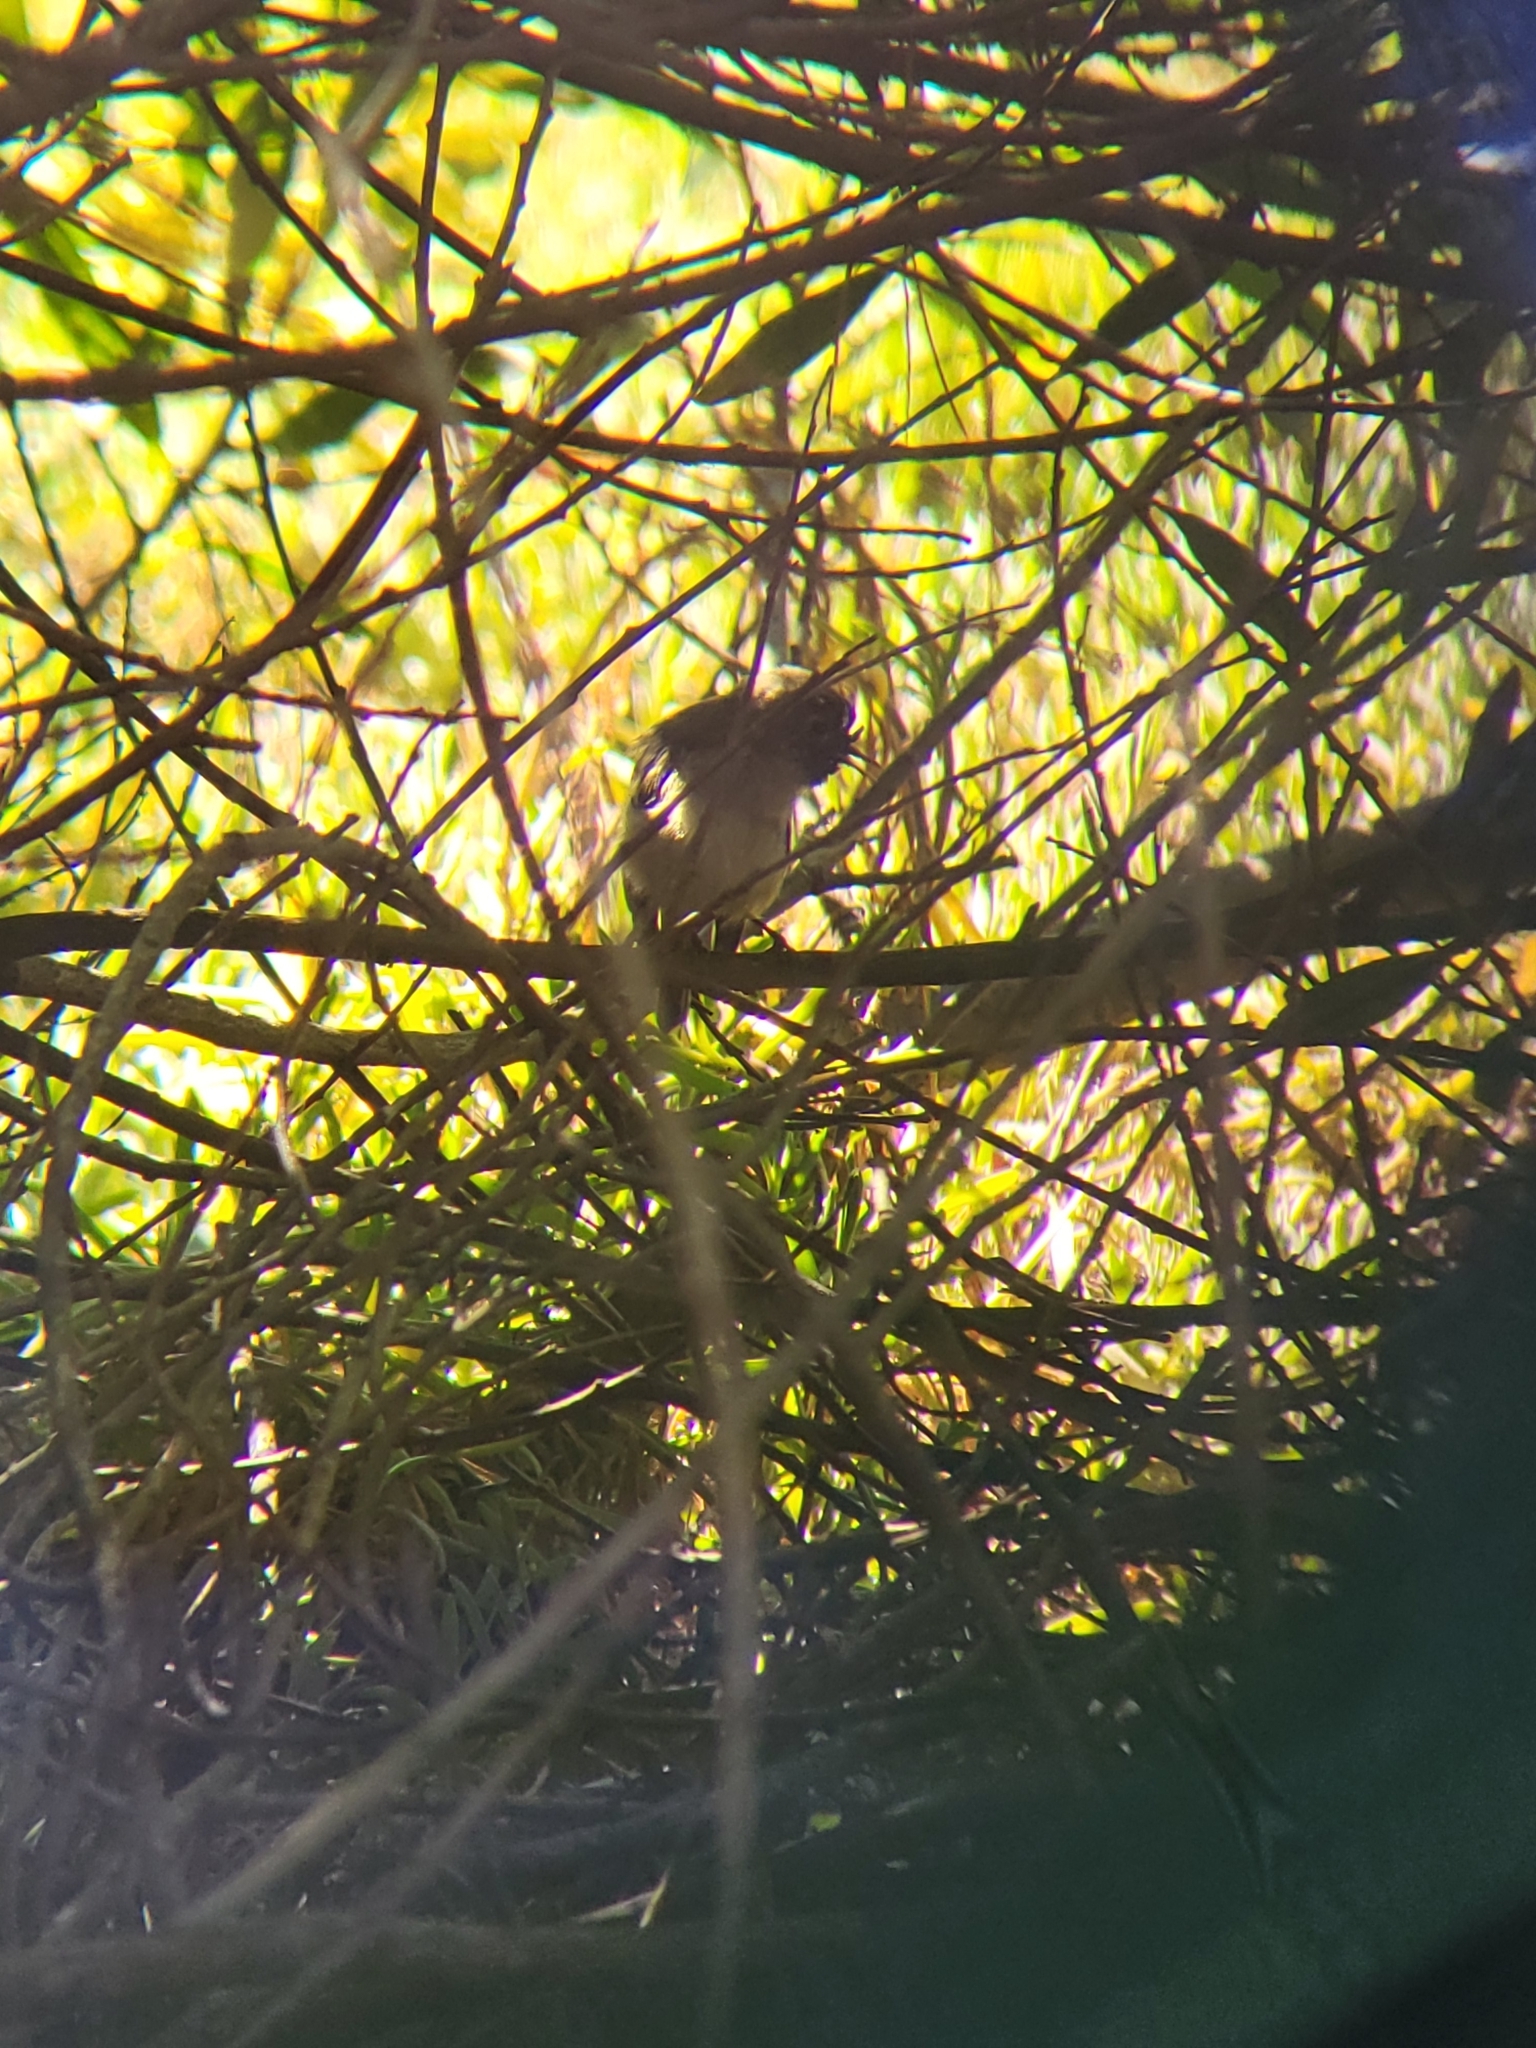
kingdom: Animalia
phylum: Chordata
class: Aves
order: Passeriformes
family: Regulidae
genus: Regulus
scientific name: Regulus calendula
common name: Ruby-crowned kinglet
